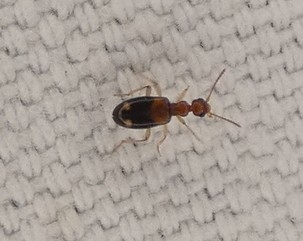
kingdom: Animalia
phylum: Arthropoda
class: Insecta
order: Coleoptera
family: Anthicidae
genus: Stricticollis
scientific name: Stricticollis tobias
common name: Two-dotted ant-like flower beetle
